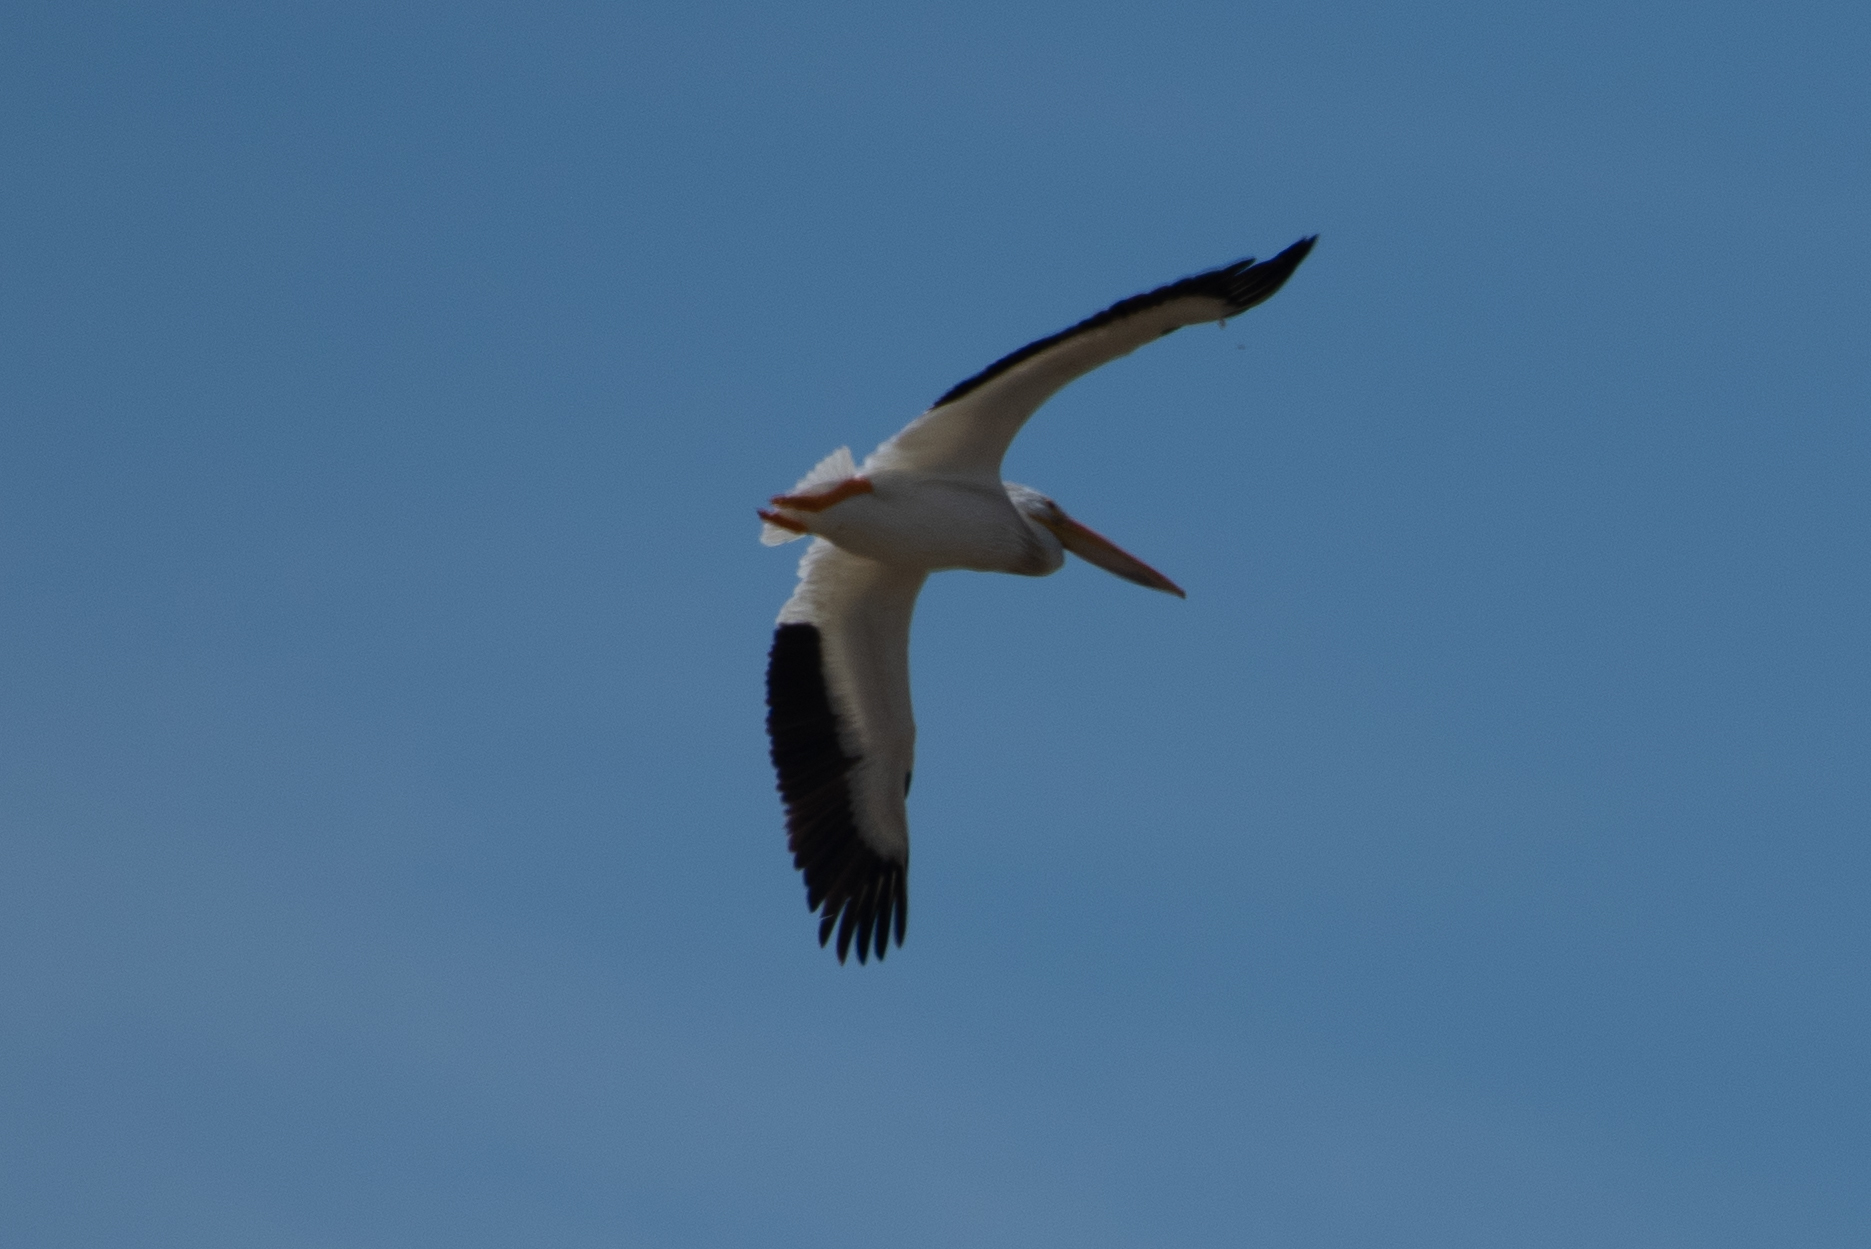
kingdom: Animalia
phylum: Chordata
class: Aves
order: Pelecaniformes
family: Pelecanidae
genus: Pelecanus
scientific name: Pelecanus erythrorhynchos
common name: American white pelican
